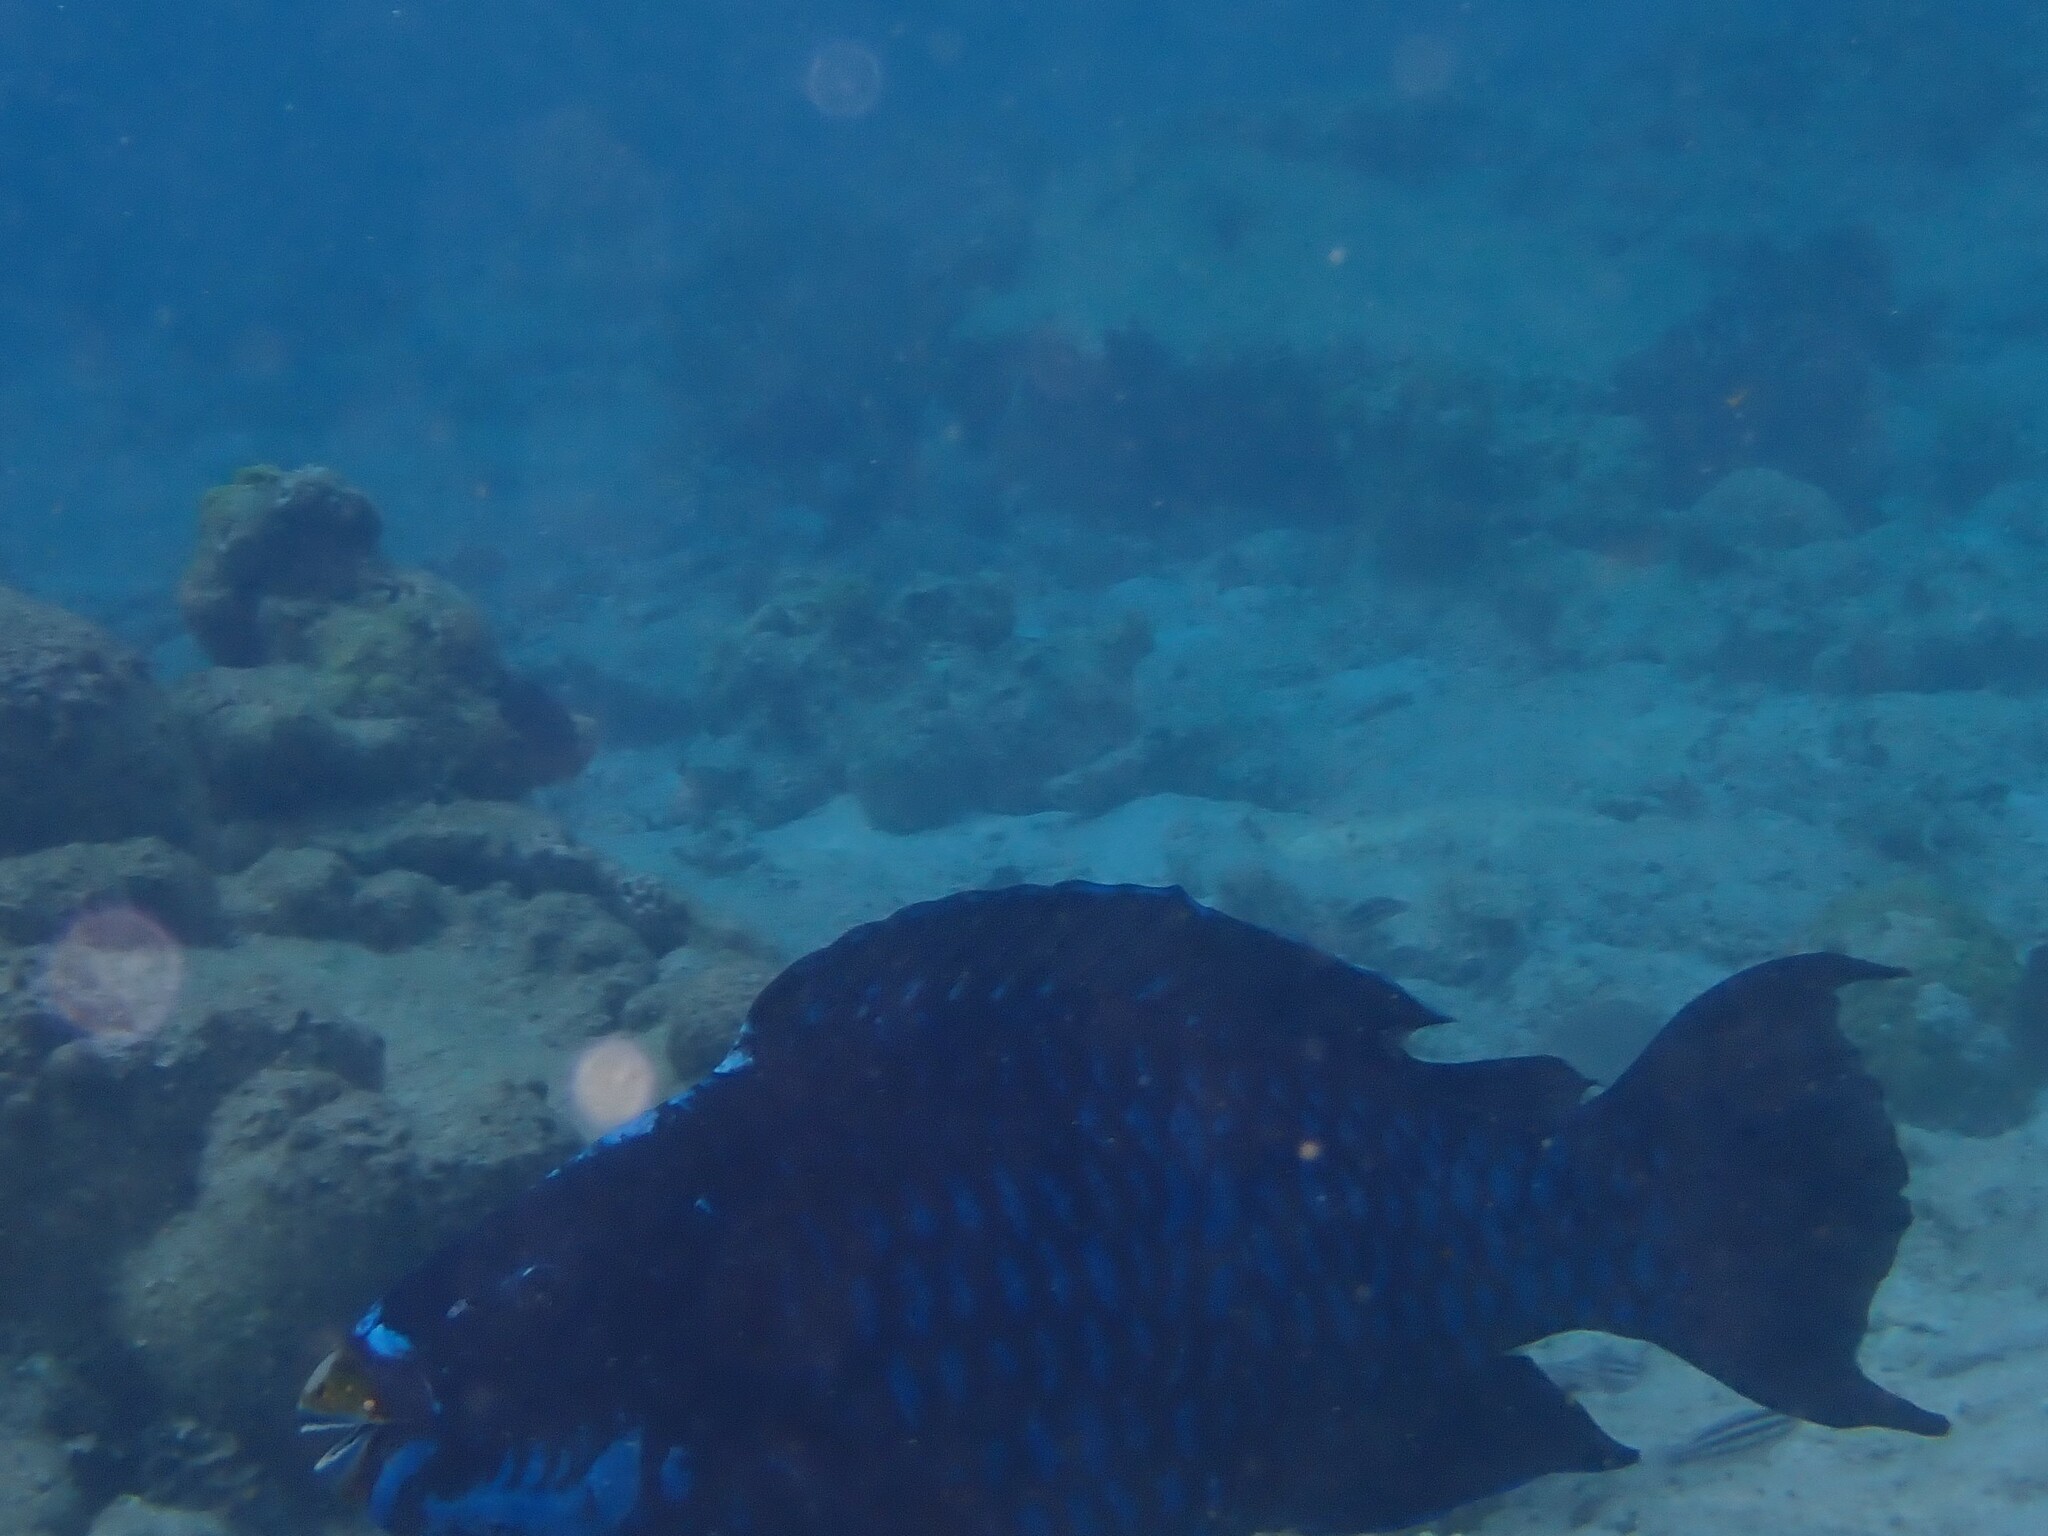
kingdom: Animalia
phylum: Chordata
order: Perciformes
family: Scaridae
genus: Scarus
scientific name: Scarus coelestinus
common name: Midnight parrotfish
